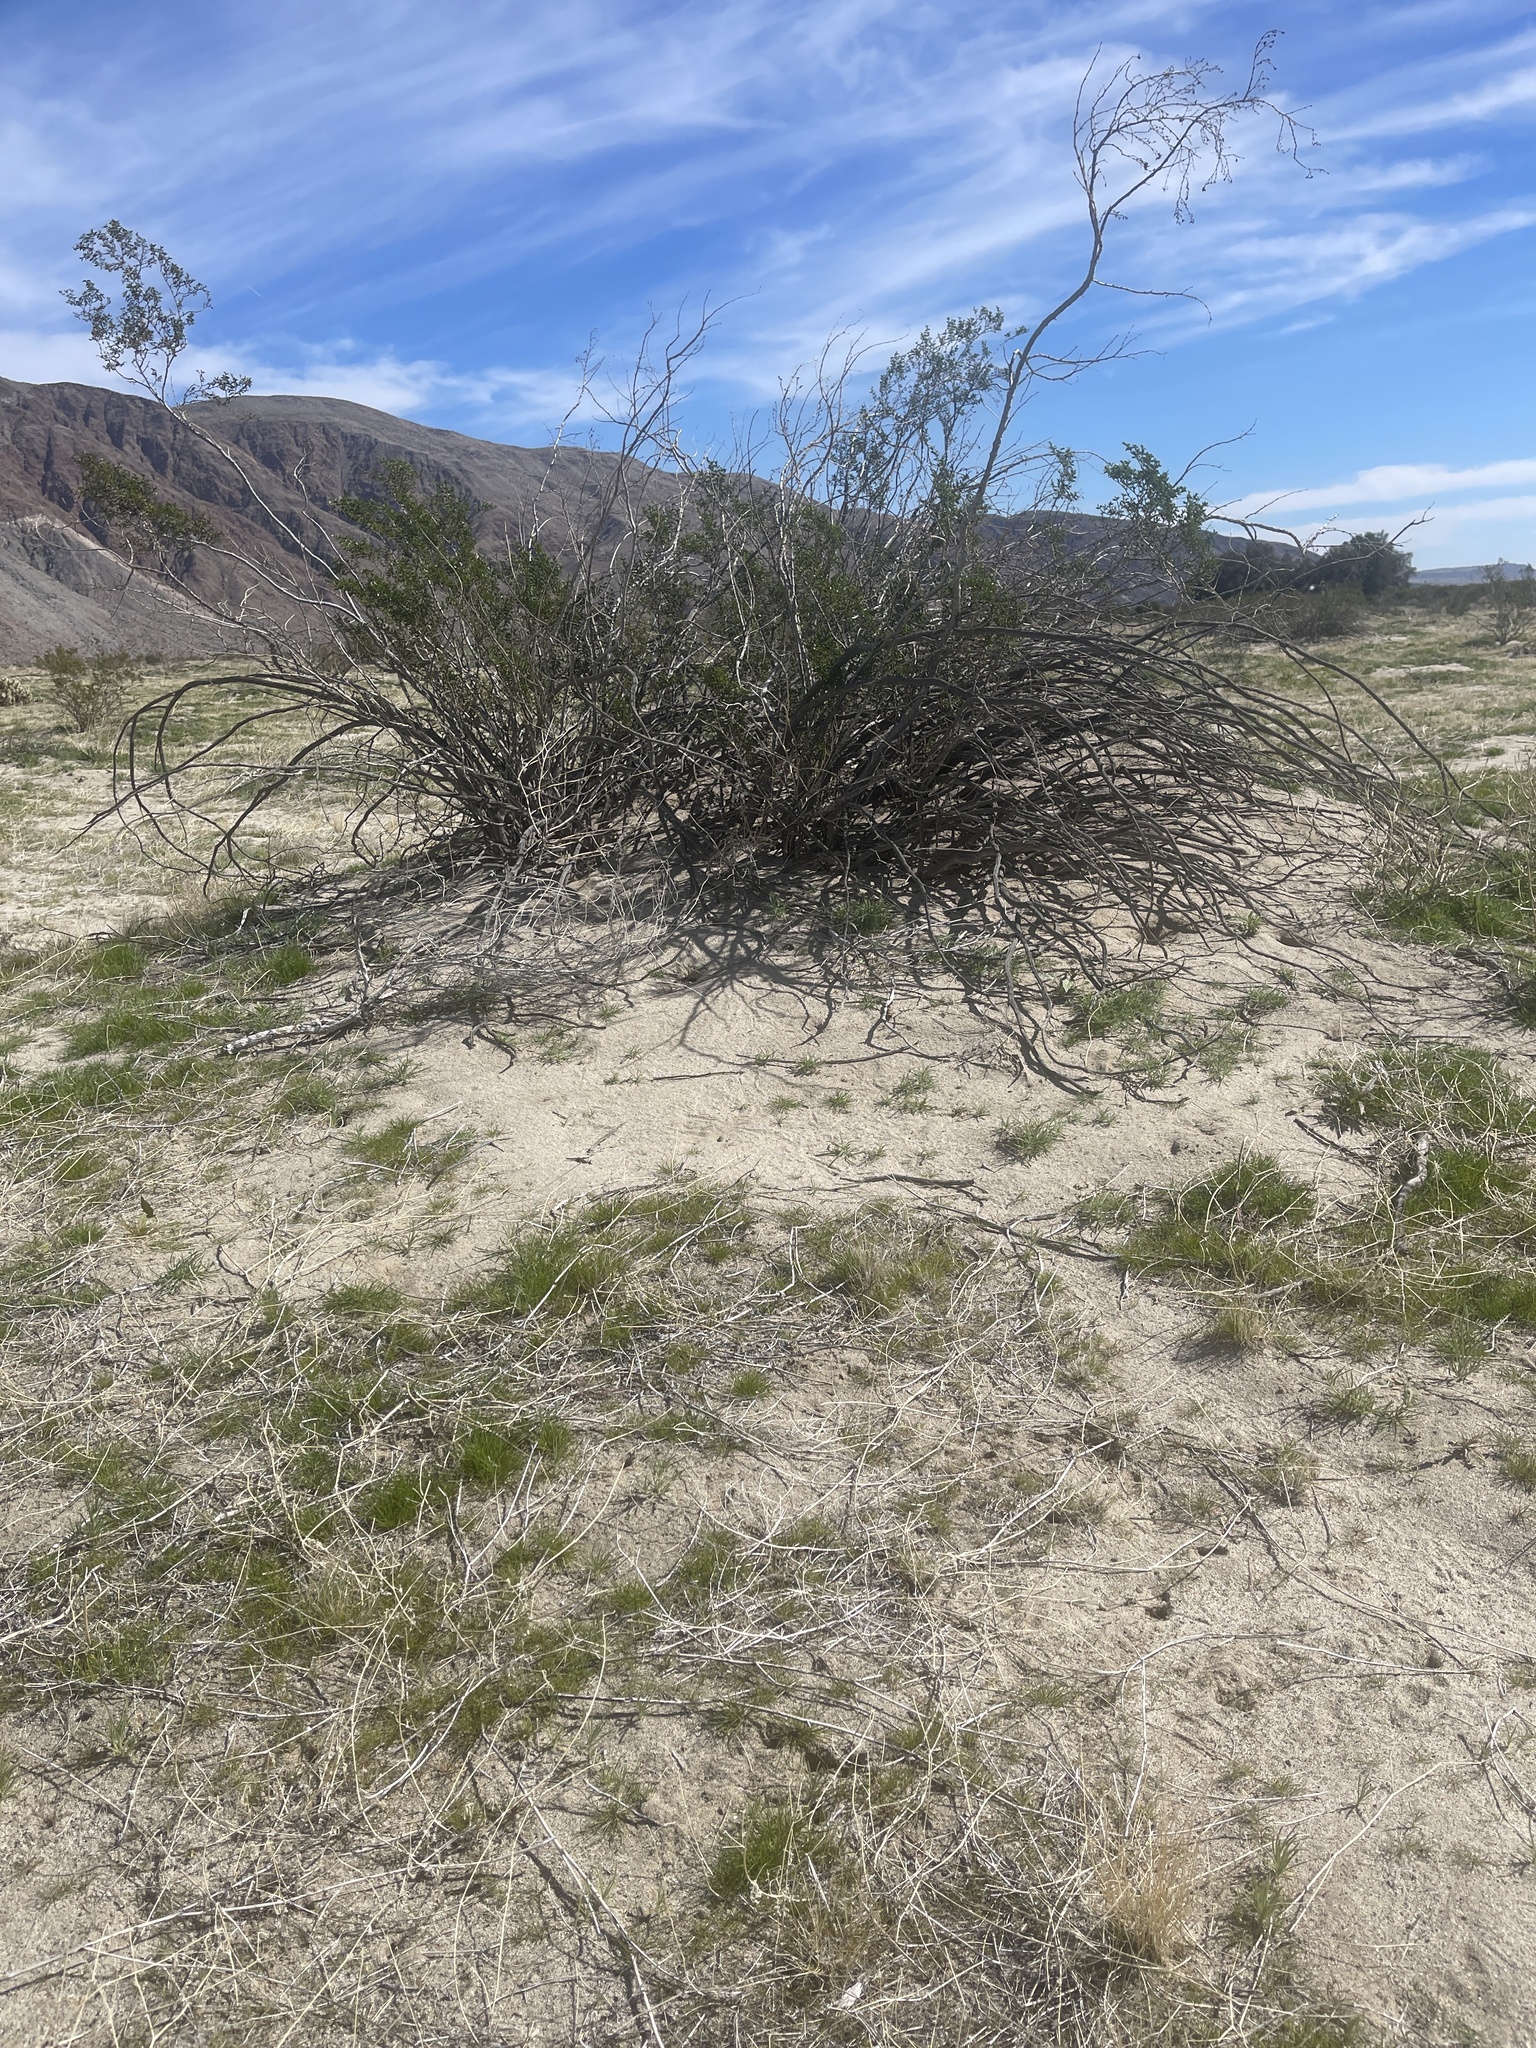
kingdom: Plantae
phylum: Tracheophyta
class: Magnoliopsida
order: Zygophyllales
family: Zygophyllaceae
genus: Larrea
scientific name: Larrea tridentata
